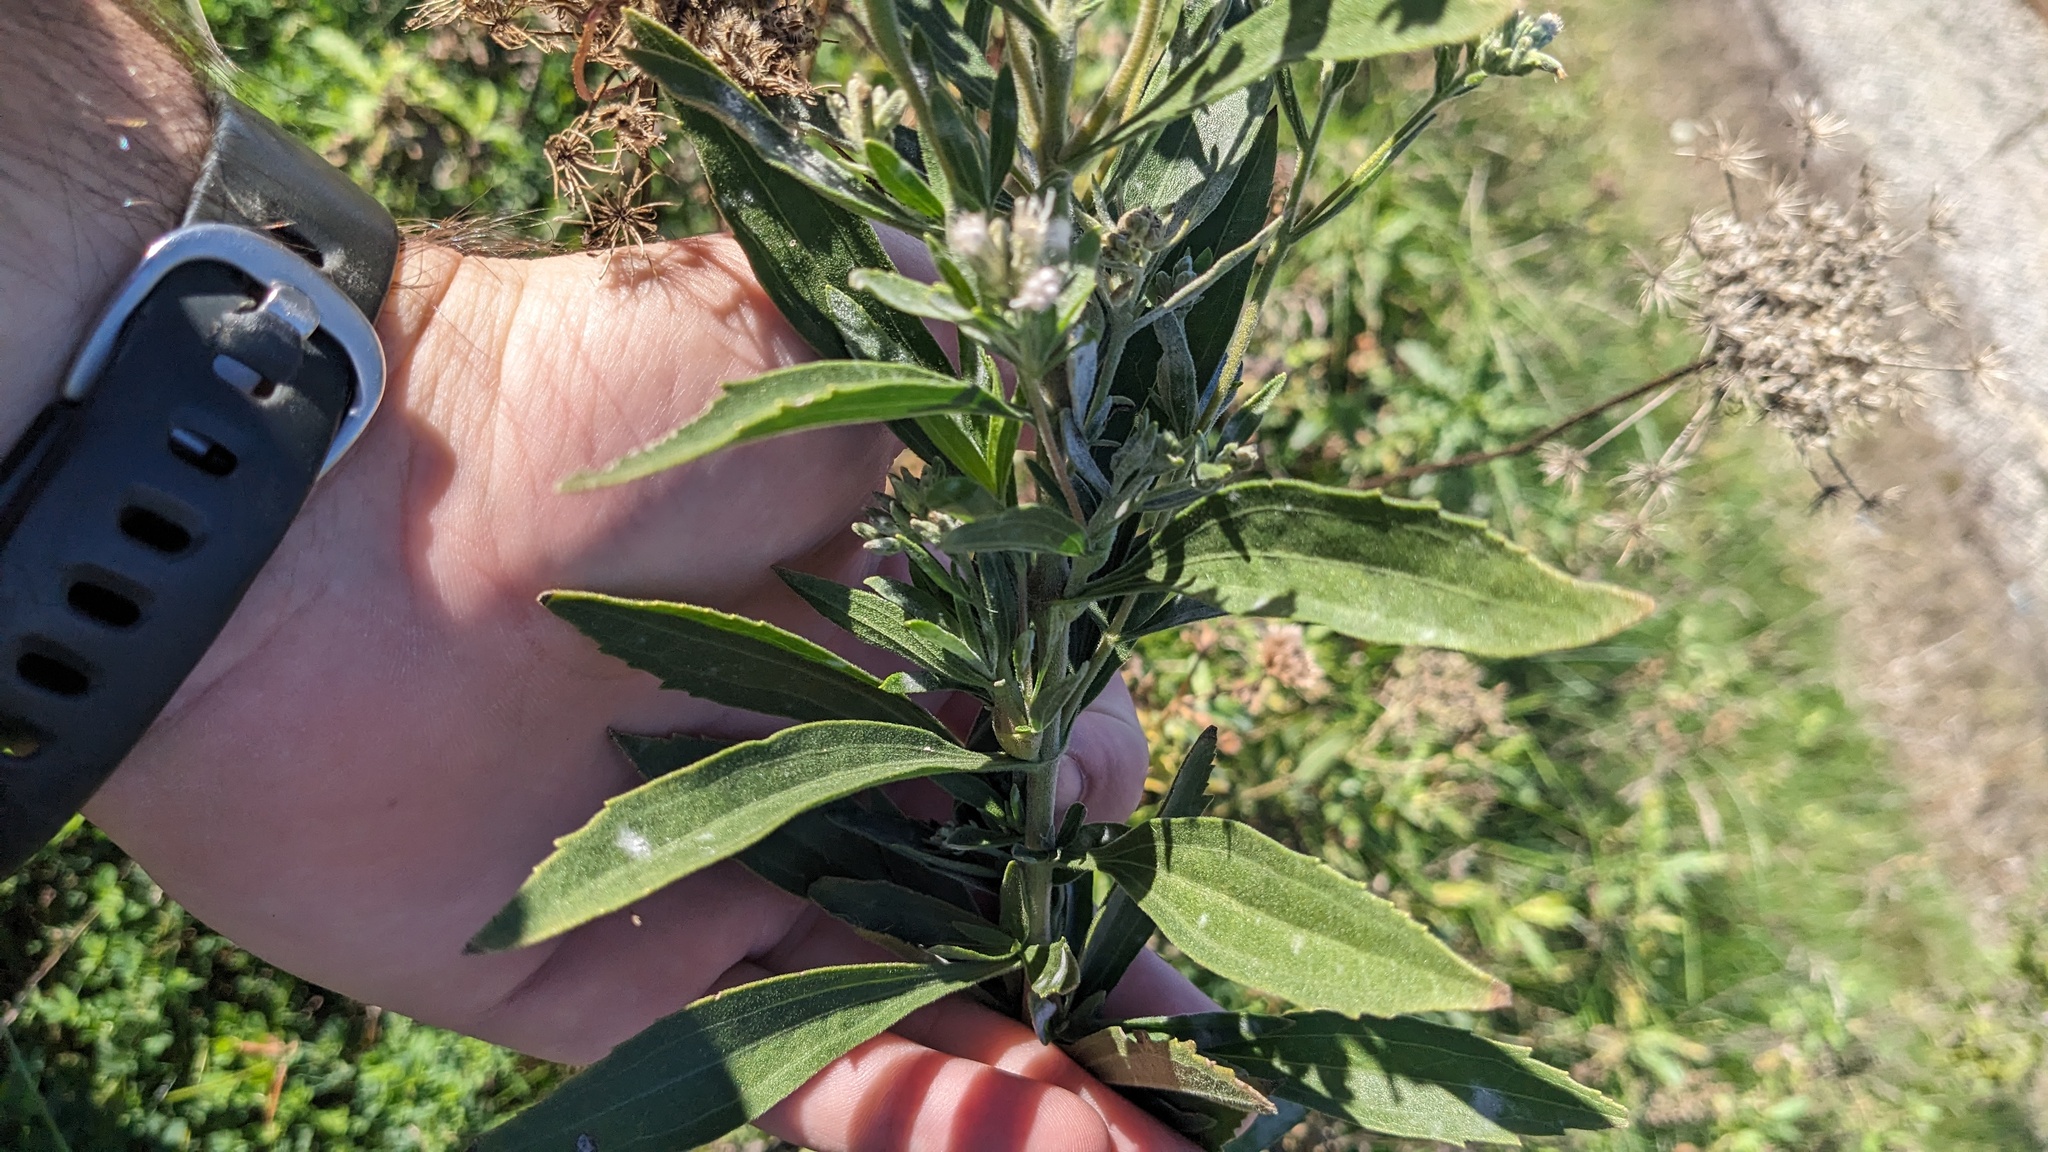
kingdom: Plantae
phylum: Tracheophyta
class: Magnoliopsida
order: Asterales
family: Asteraceae
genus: Eupatorium
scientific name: Eupatorium altissimum
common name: Tall thoroughwort
